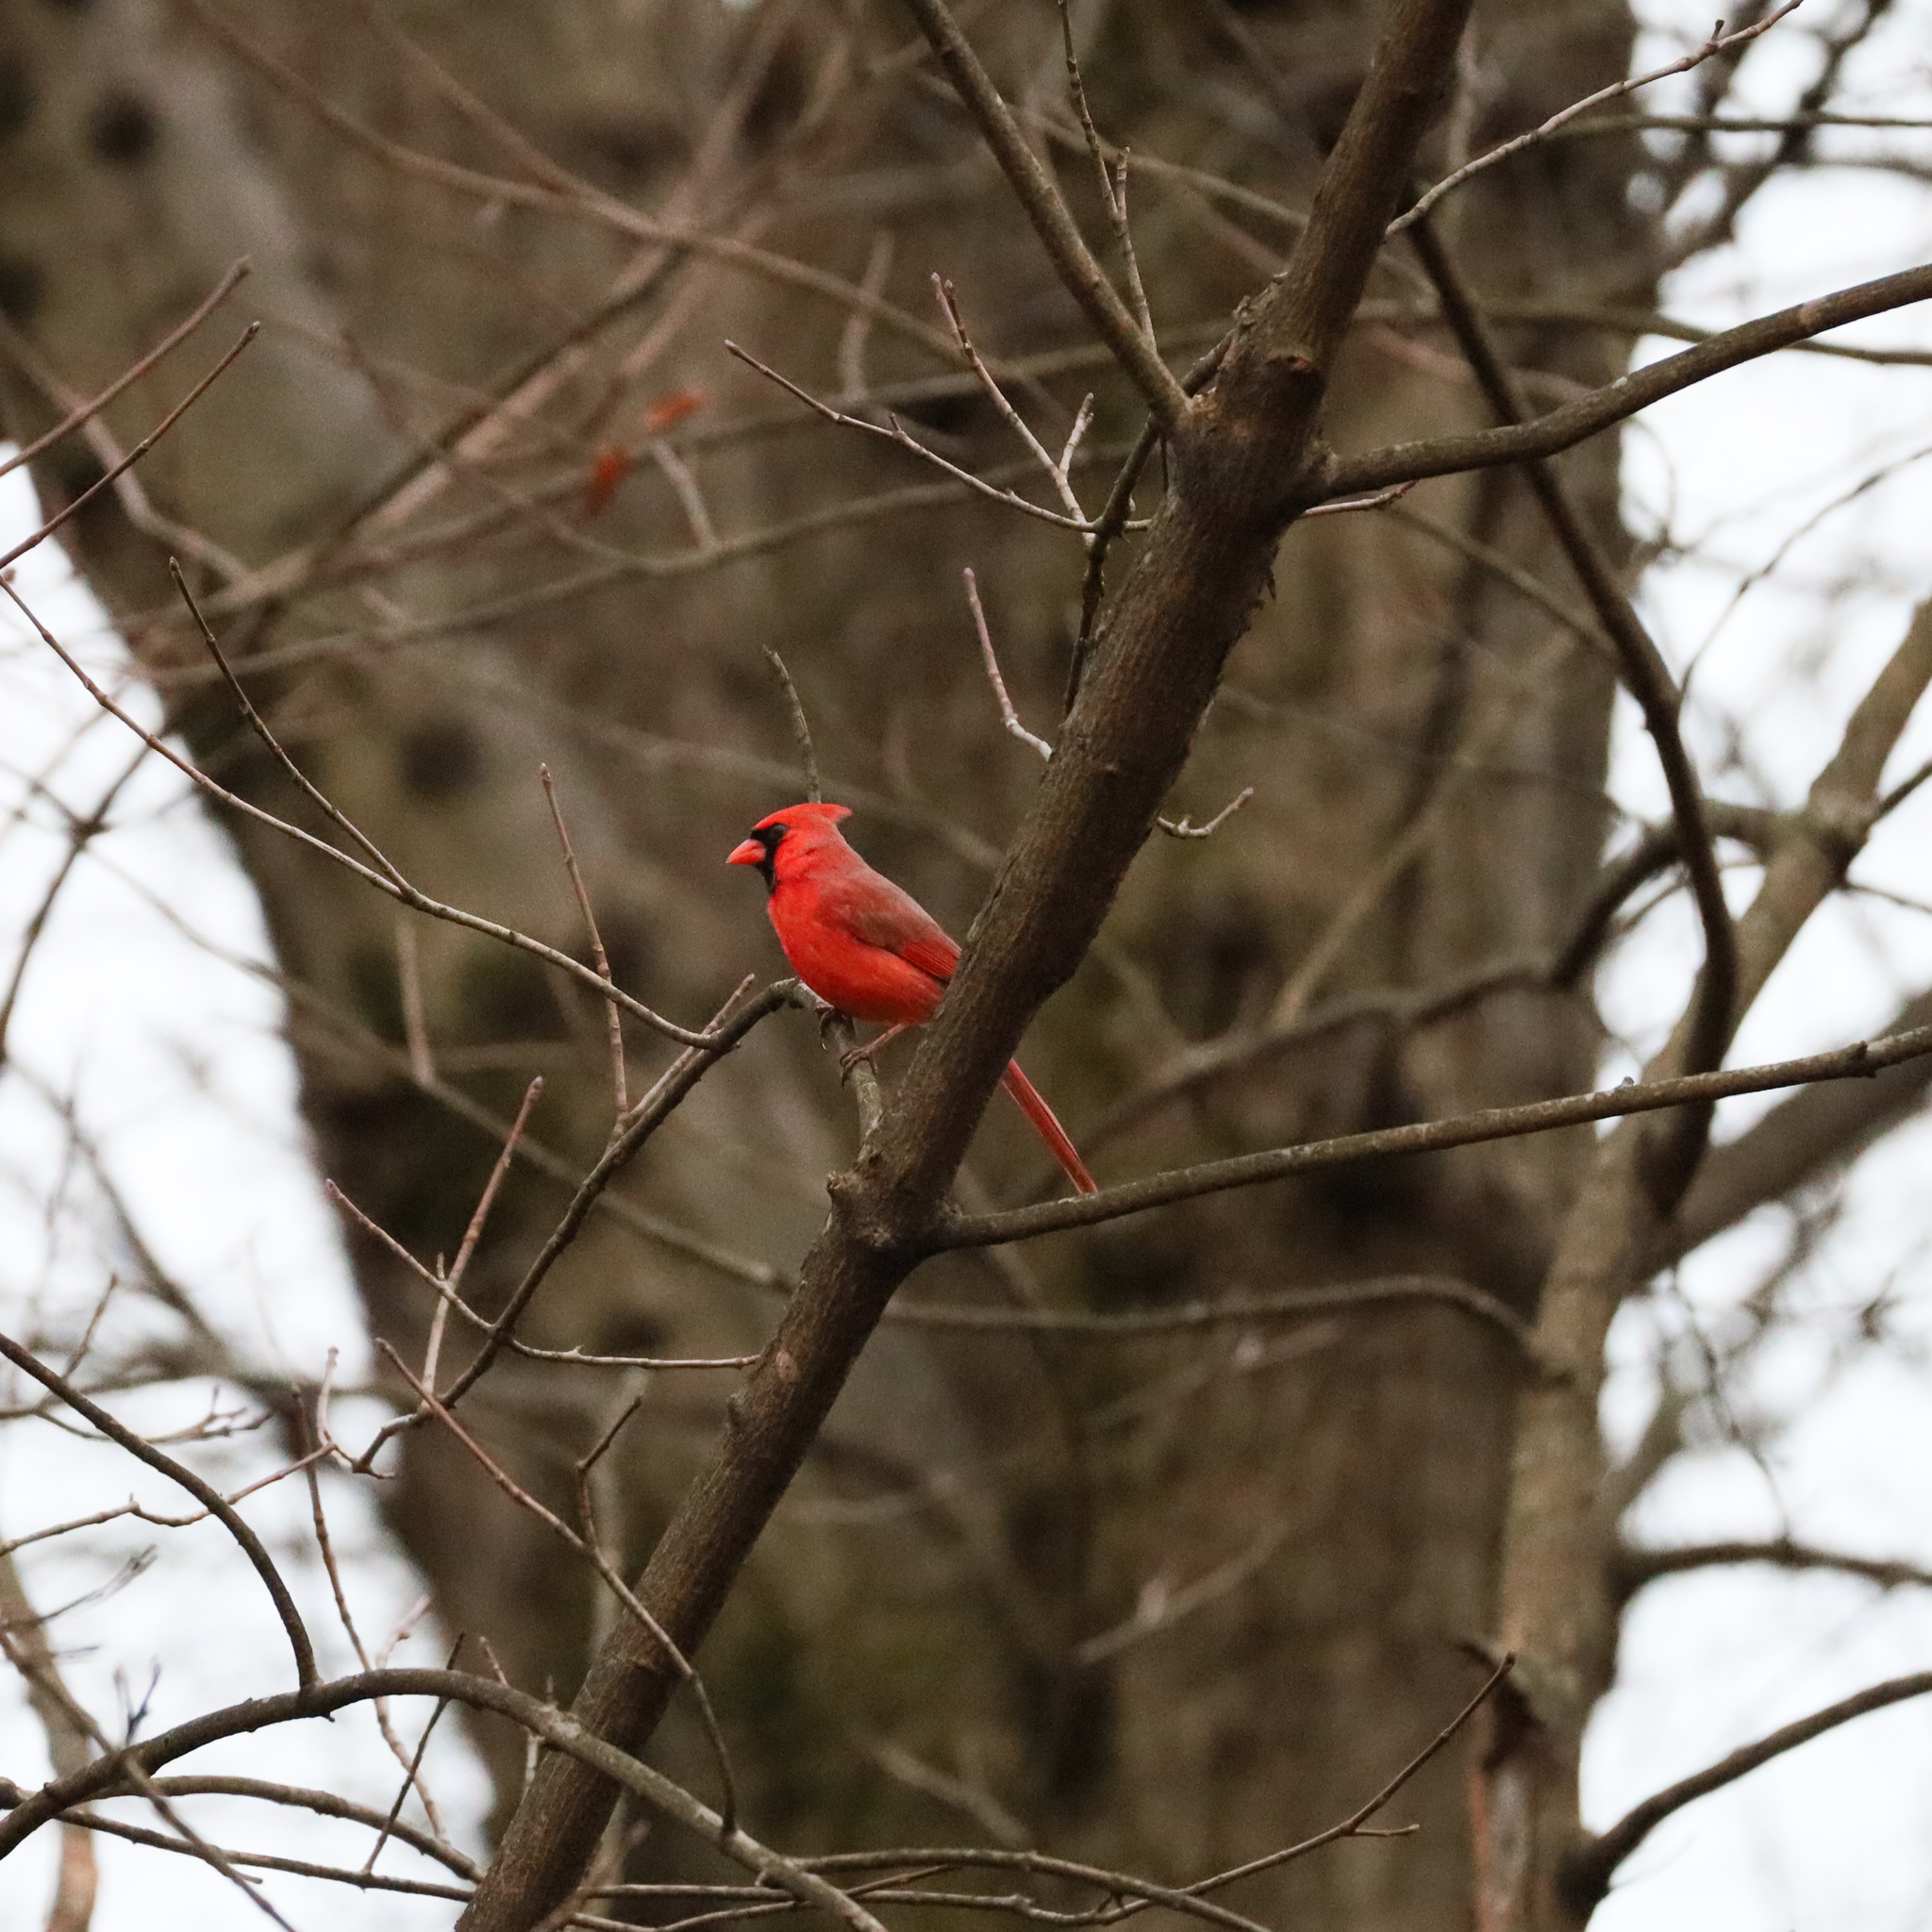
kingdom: Animalia
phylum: Chordata
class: Aves
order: Passeriformes
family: Cardinalidae
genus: Cardinalis
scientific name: Cardinalis cardinalis
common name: Northern cardinal
